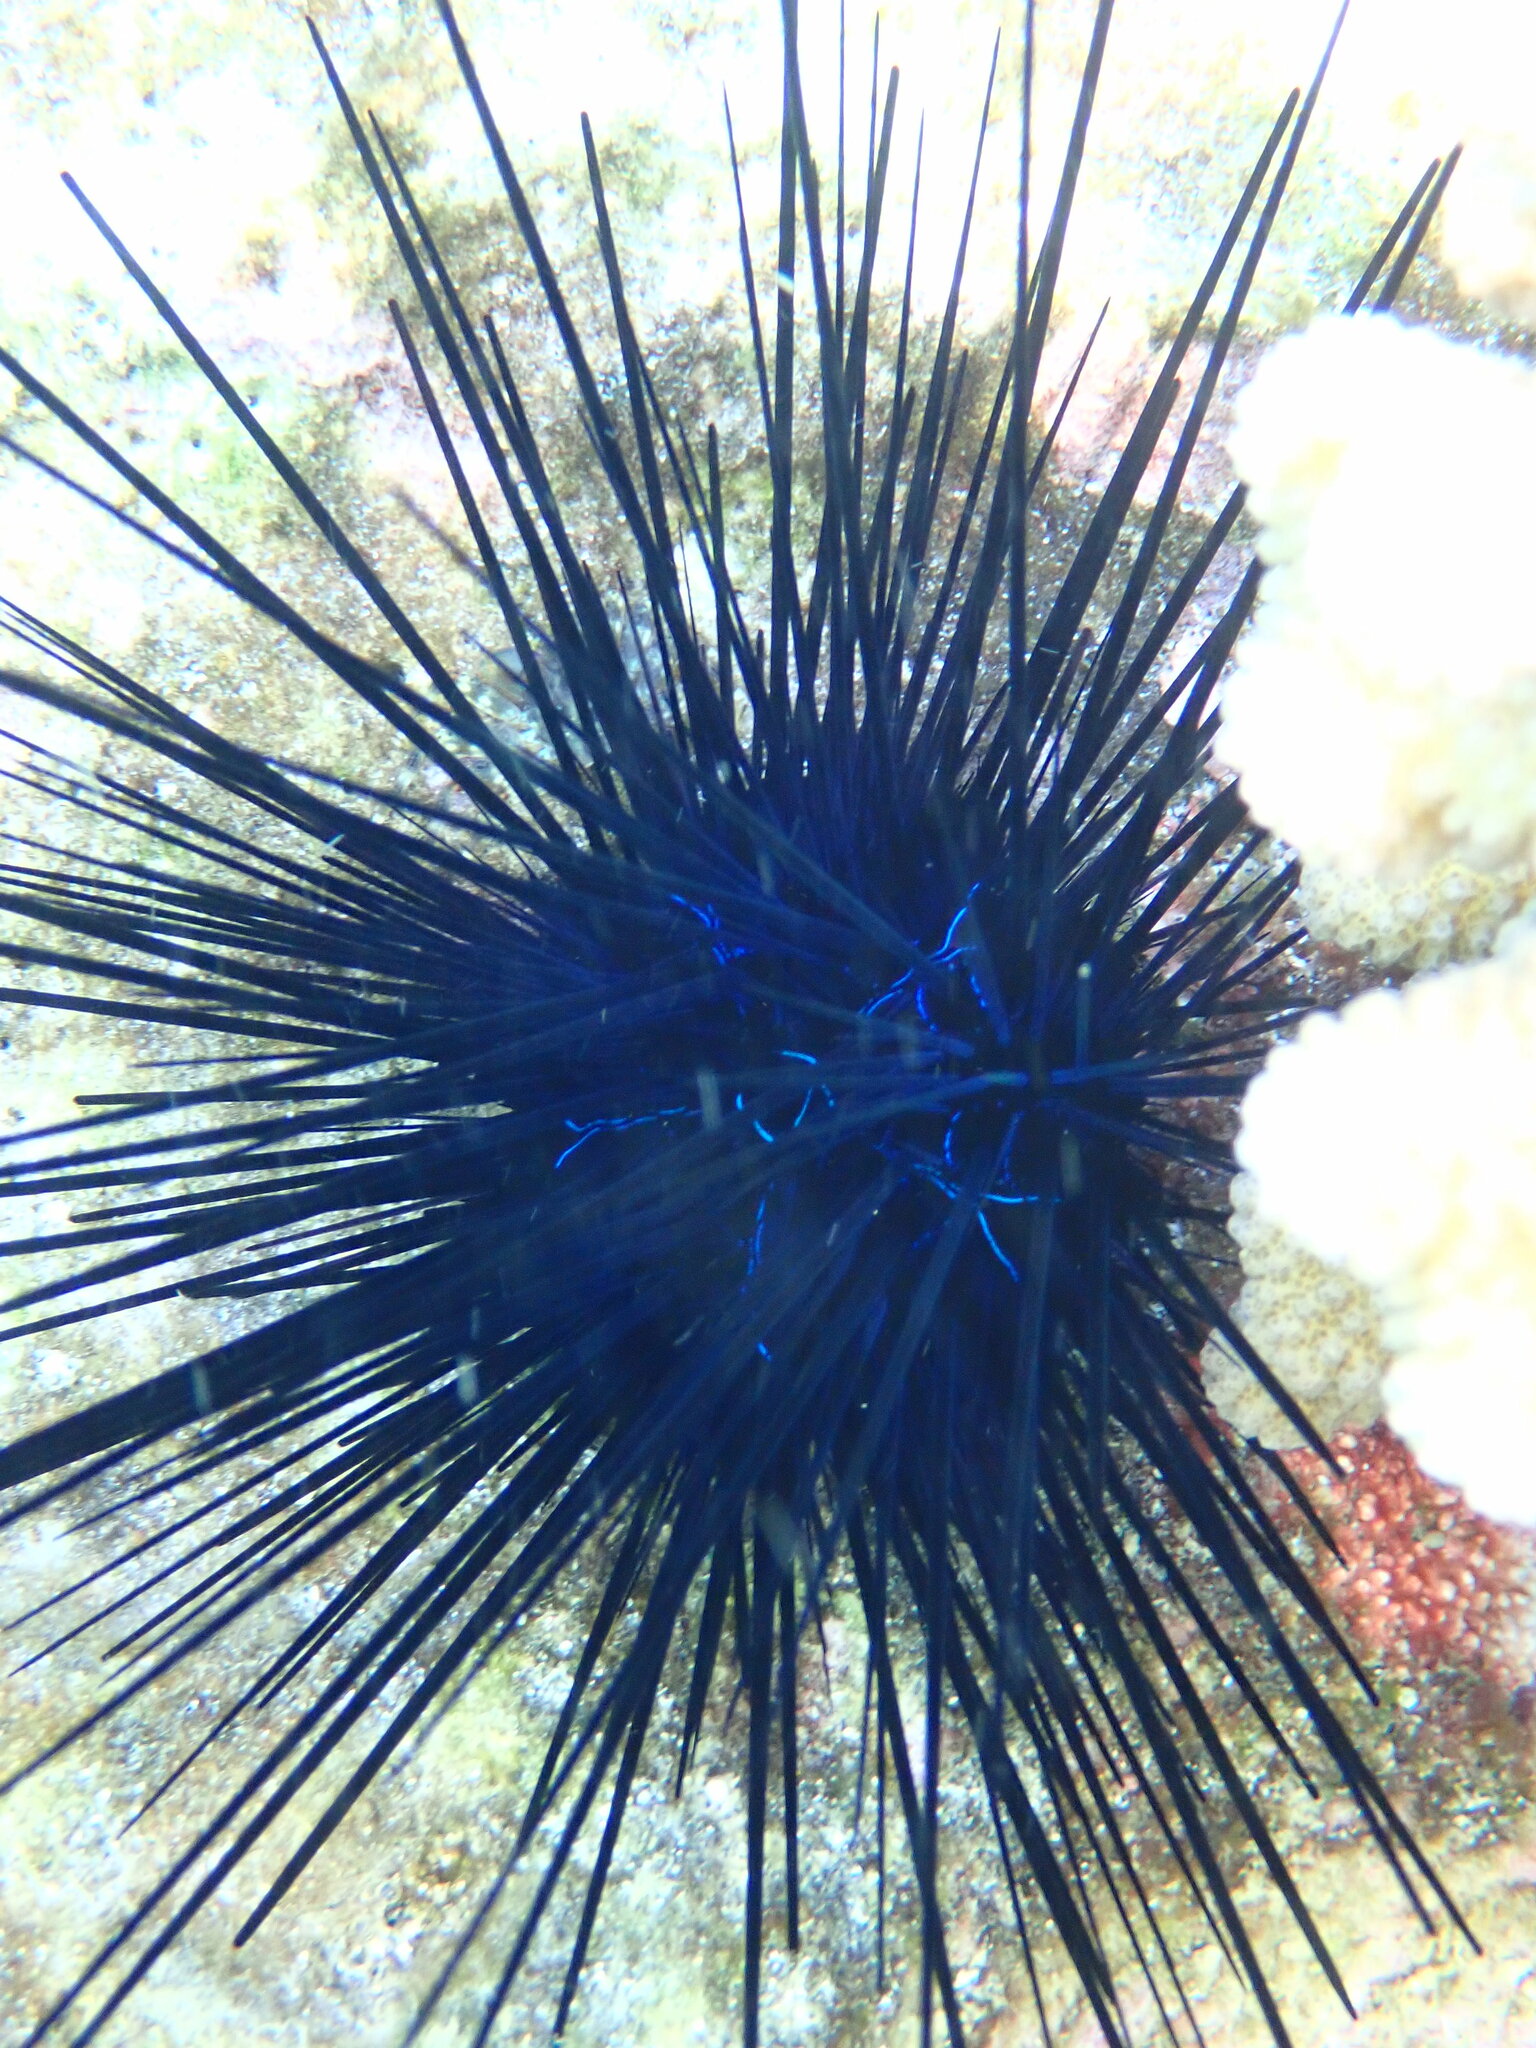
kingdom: Animalia
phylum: Echinodermata
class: Echinoidea
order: Diadematoida
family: Diadematidae
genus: Diadema
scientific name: Diadema savignyi
